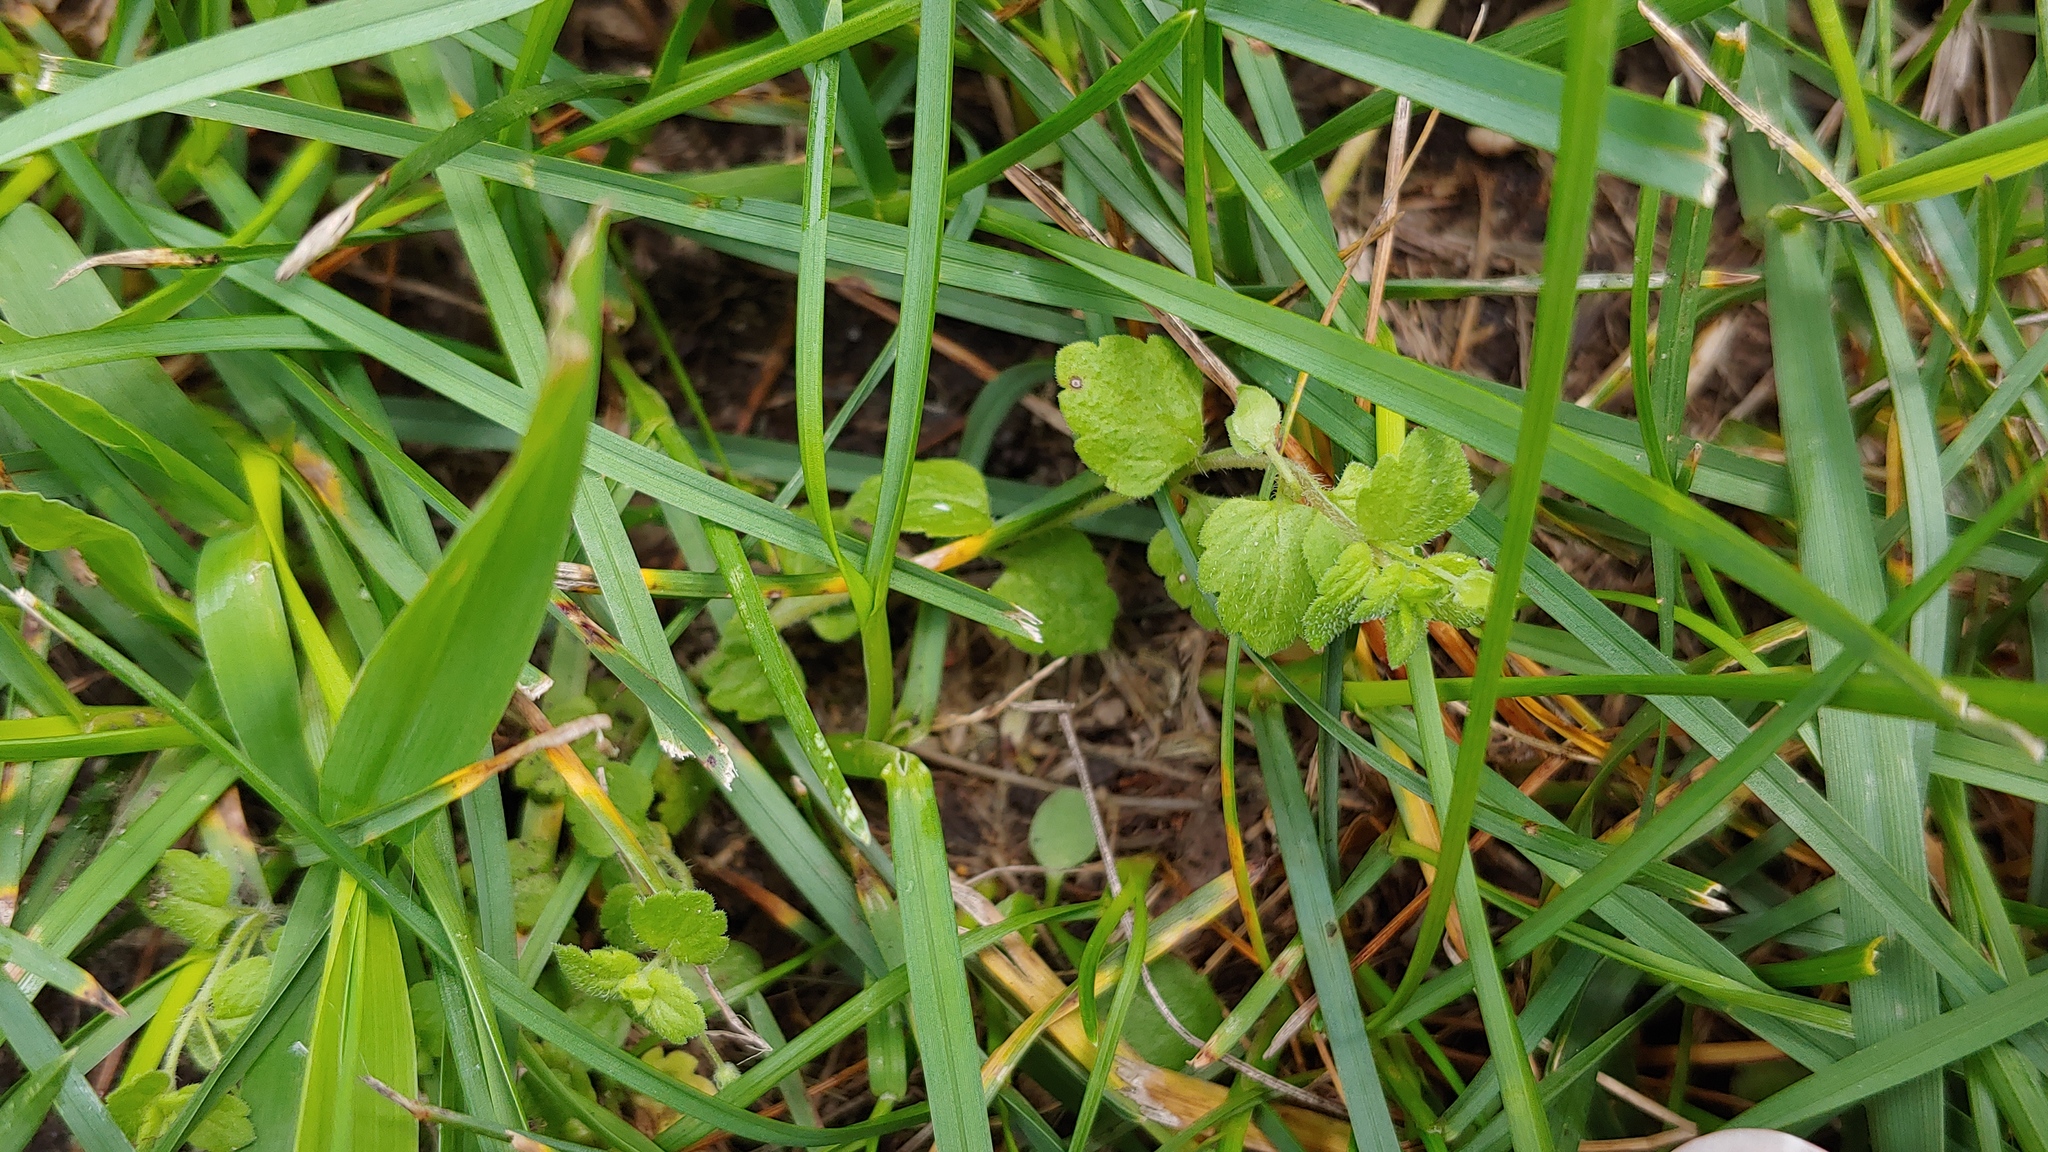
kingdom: Plantae
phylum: Tracheophyta
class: Magnoliopsida
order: Lamiales
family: Plantaginaceae
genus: Veronica
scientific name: Veronica persica
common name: Common field-speedwell
